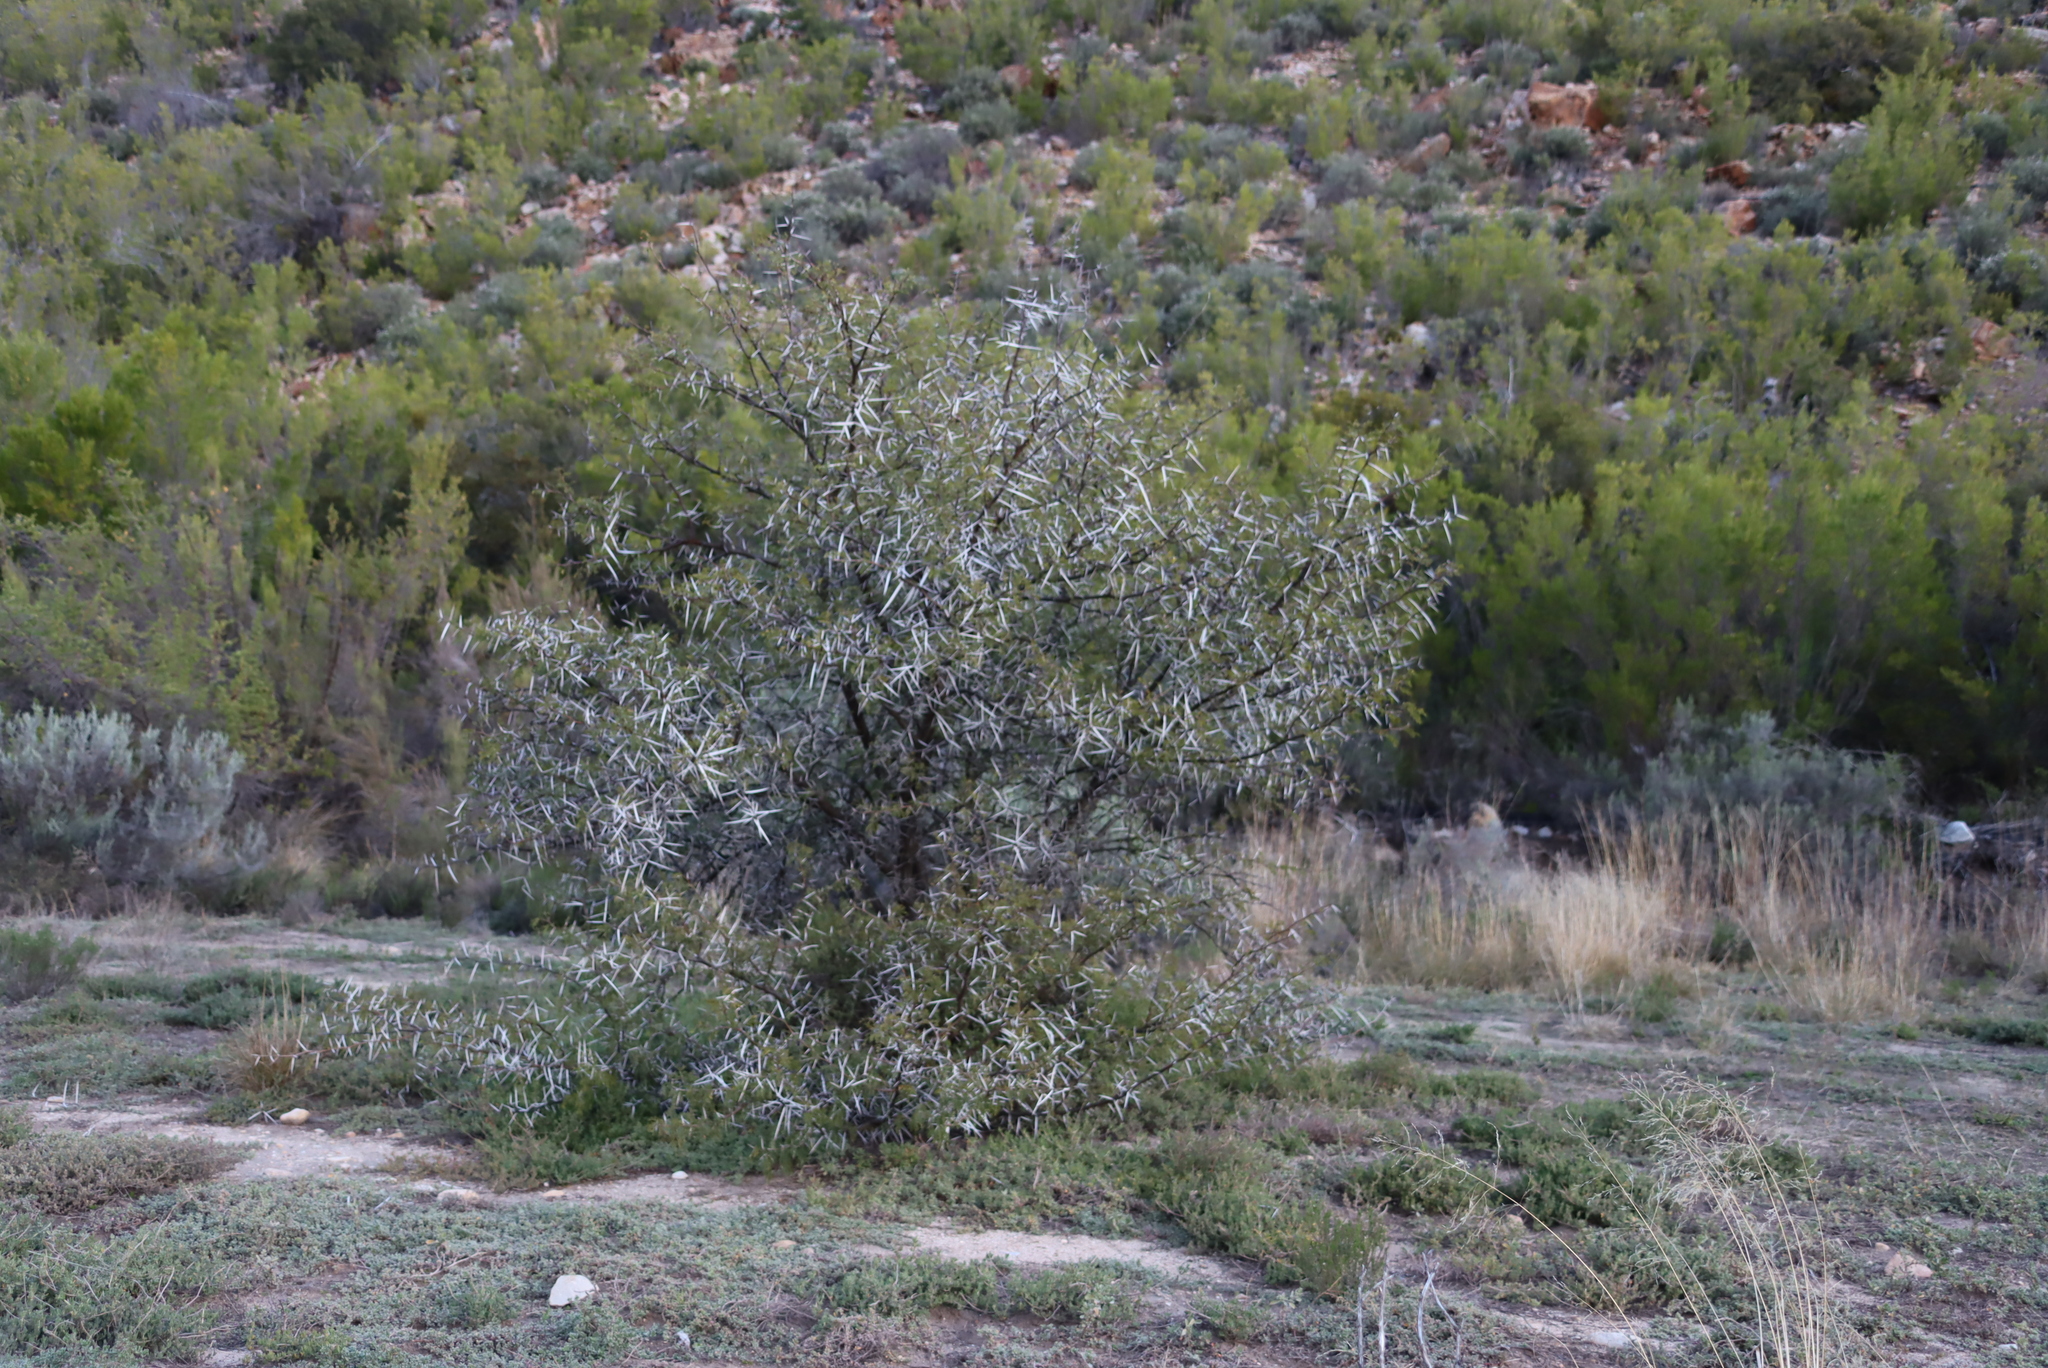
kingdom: Plantae
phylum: Tracheophyta
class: Magnoliopsida
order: Fabales
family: Fabaceae
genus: Vachellia
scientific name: Vachellia karroo
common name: Sweet thorn
